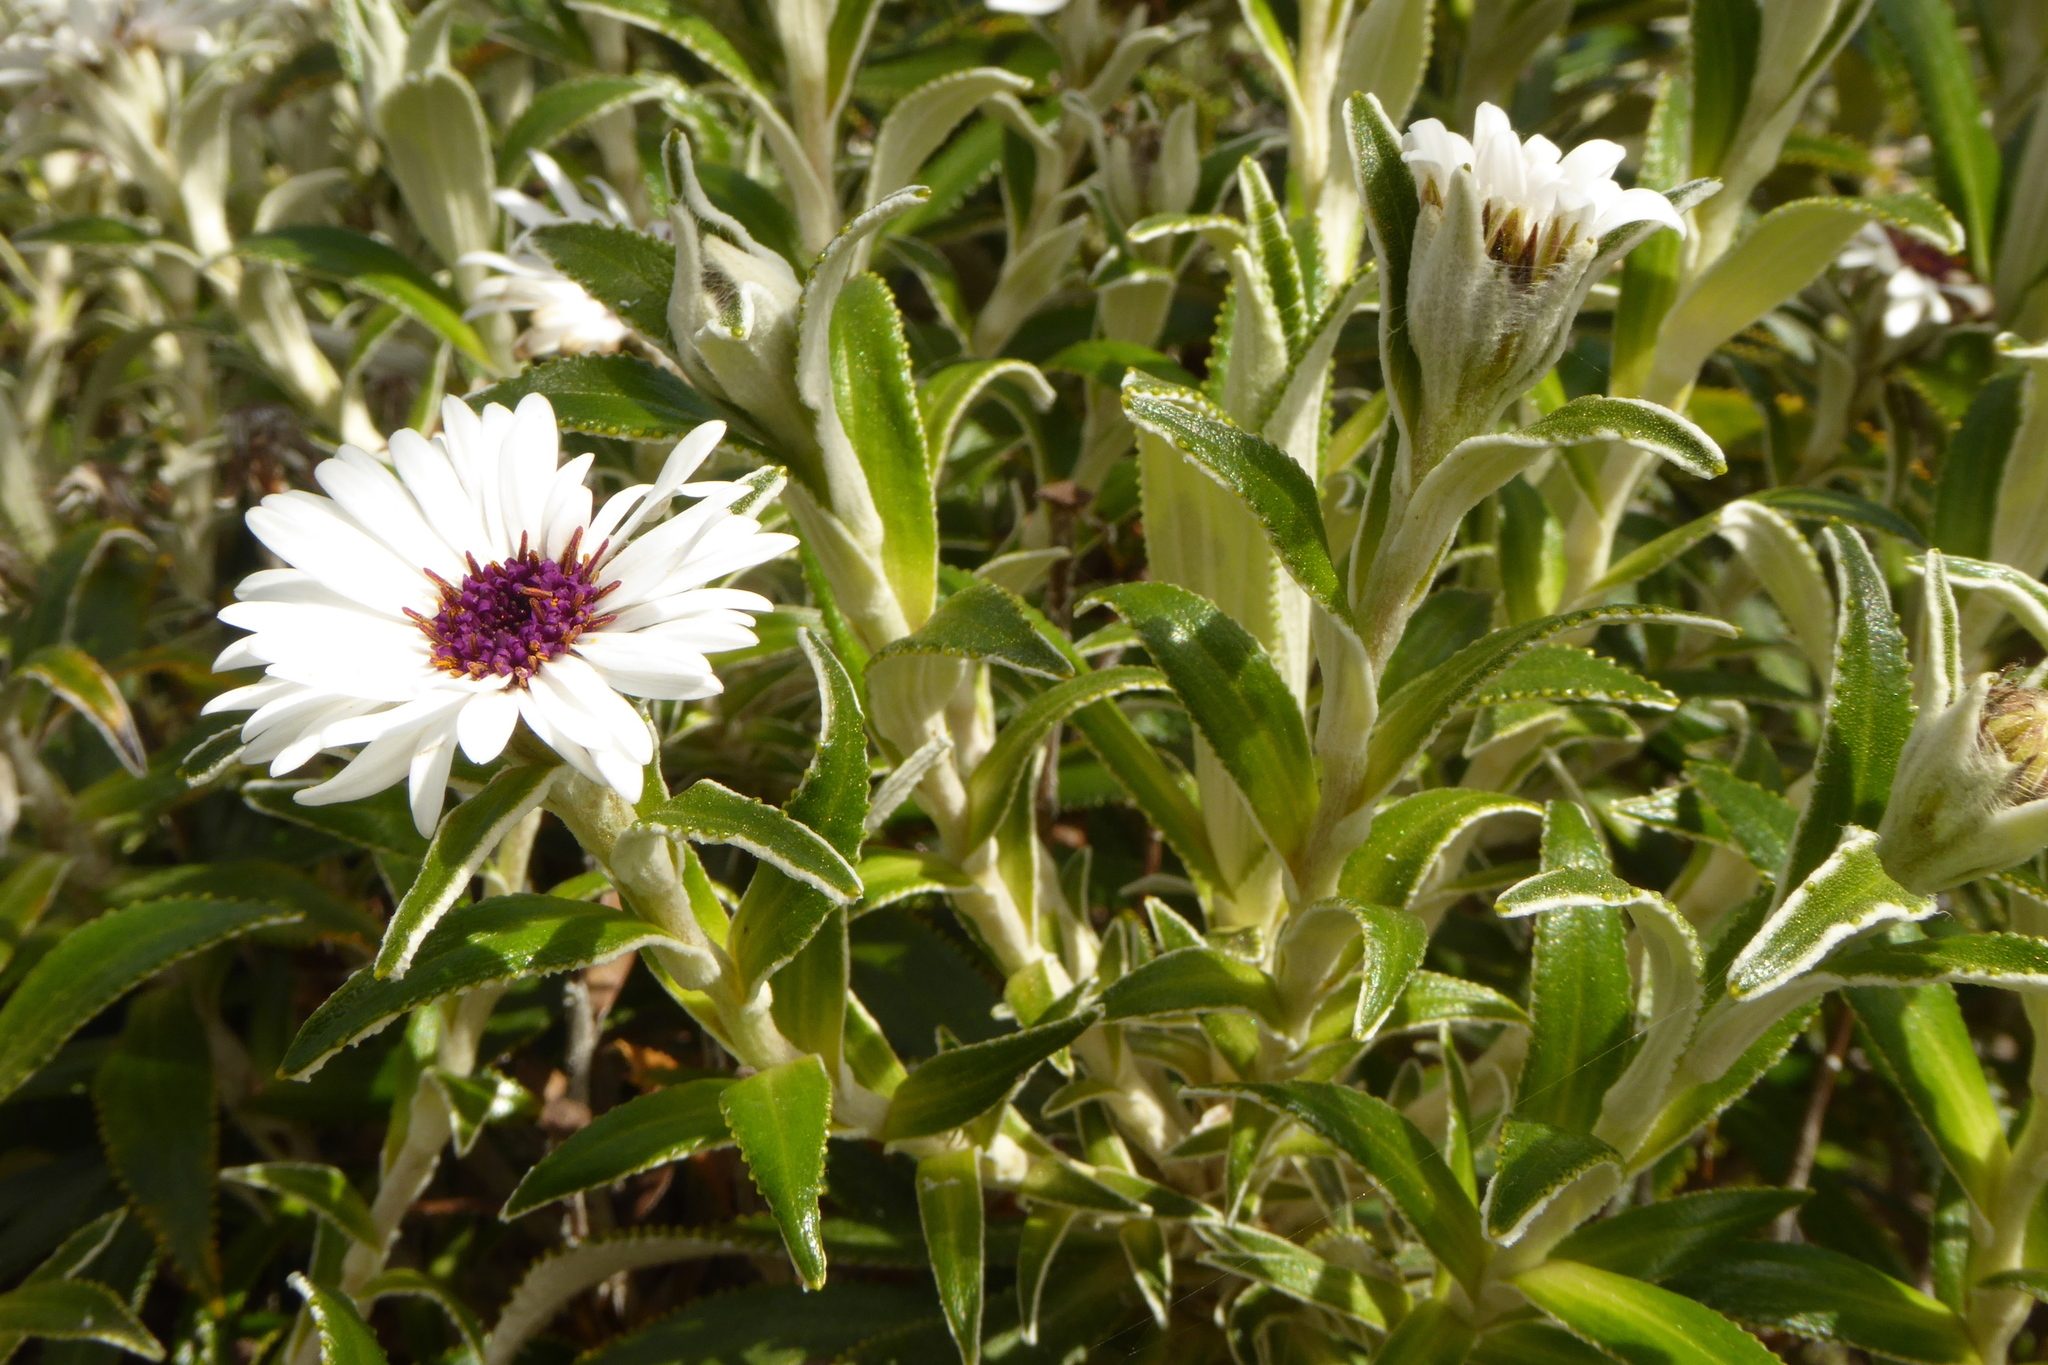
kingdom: Plantae
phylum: Tracheophyta
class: Magnoliopsida
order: Asterales
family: Asteraceae
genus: Macrolearia
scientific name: Macrolearia angustifolia
